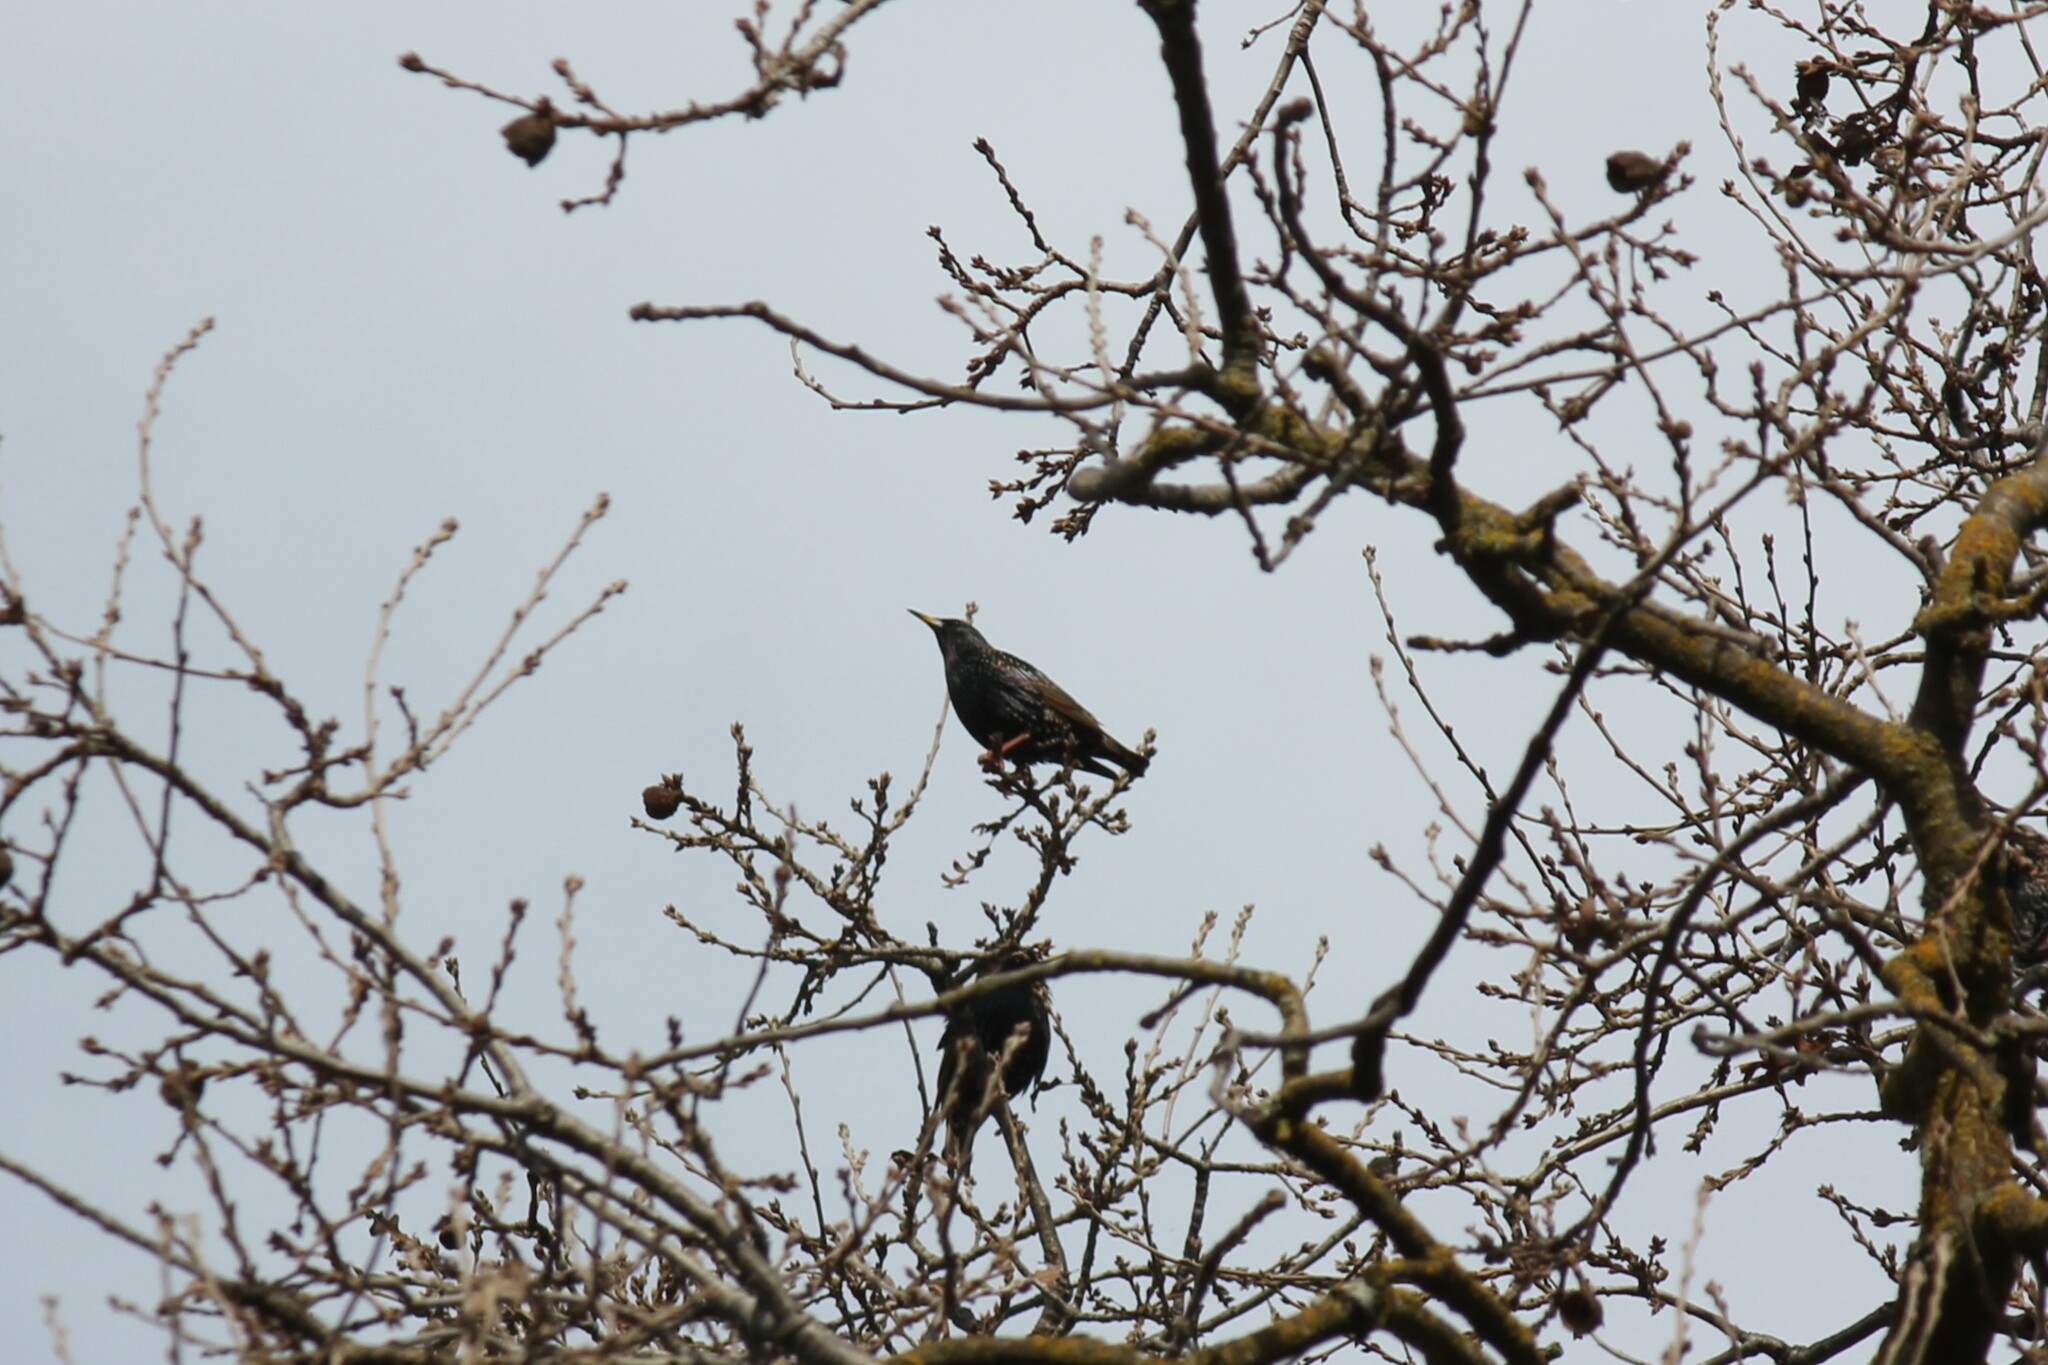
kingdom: Animalia
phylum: Chordata
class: Aves
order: Passeriformes
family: Sturnidae
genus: Sturnus
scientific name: Sturnus vulgaris
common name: Common starling
